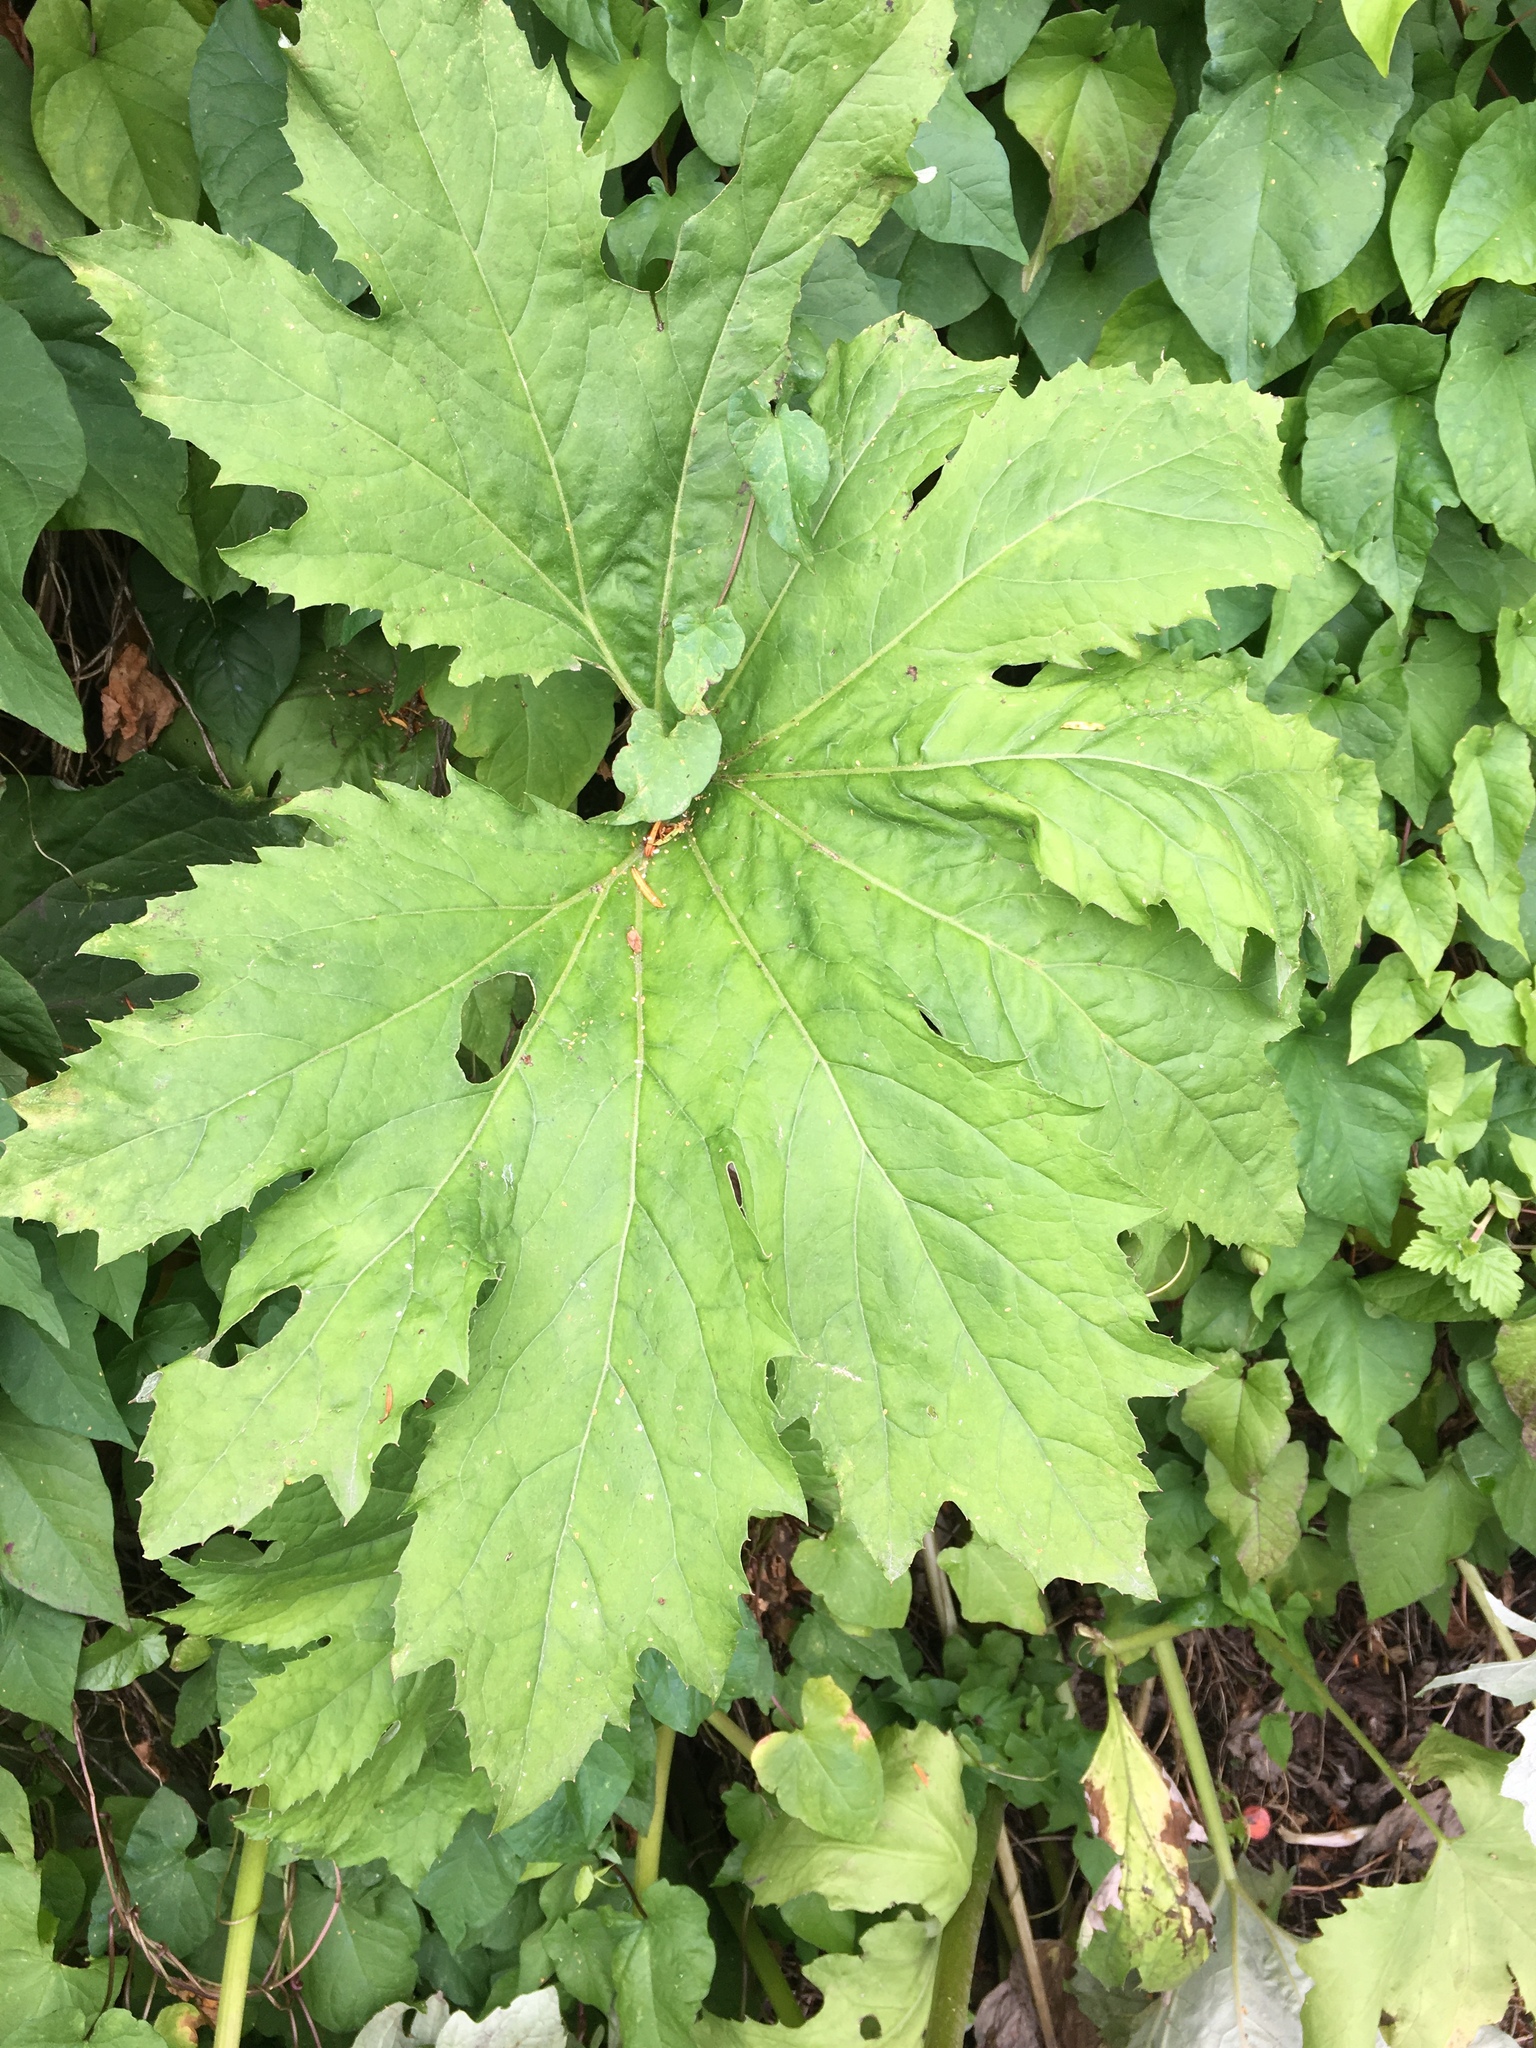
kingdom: Plantae
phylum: Tracheophyta
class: Magnoliopsida
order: Asterales
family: Asteraceae
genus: Petasites
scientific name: Petasites frigidus
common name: Arctic butterbur
